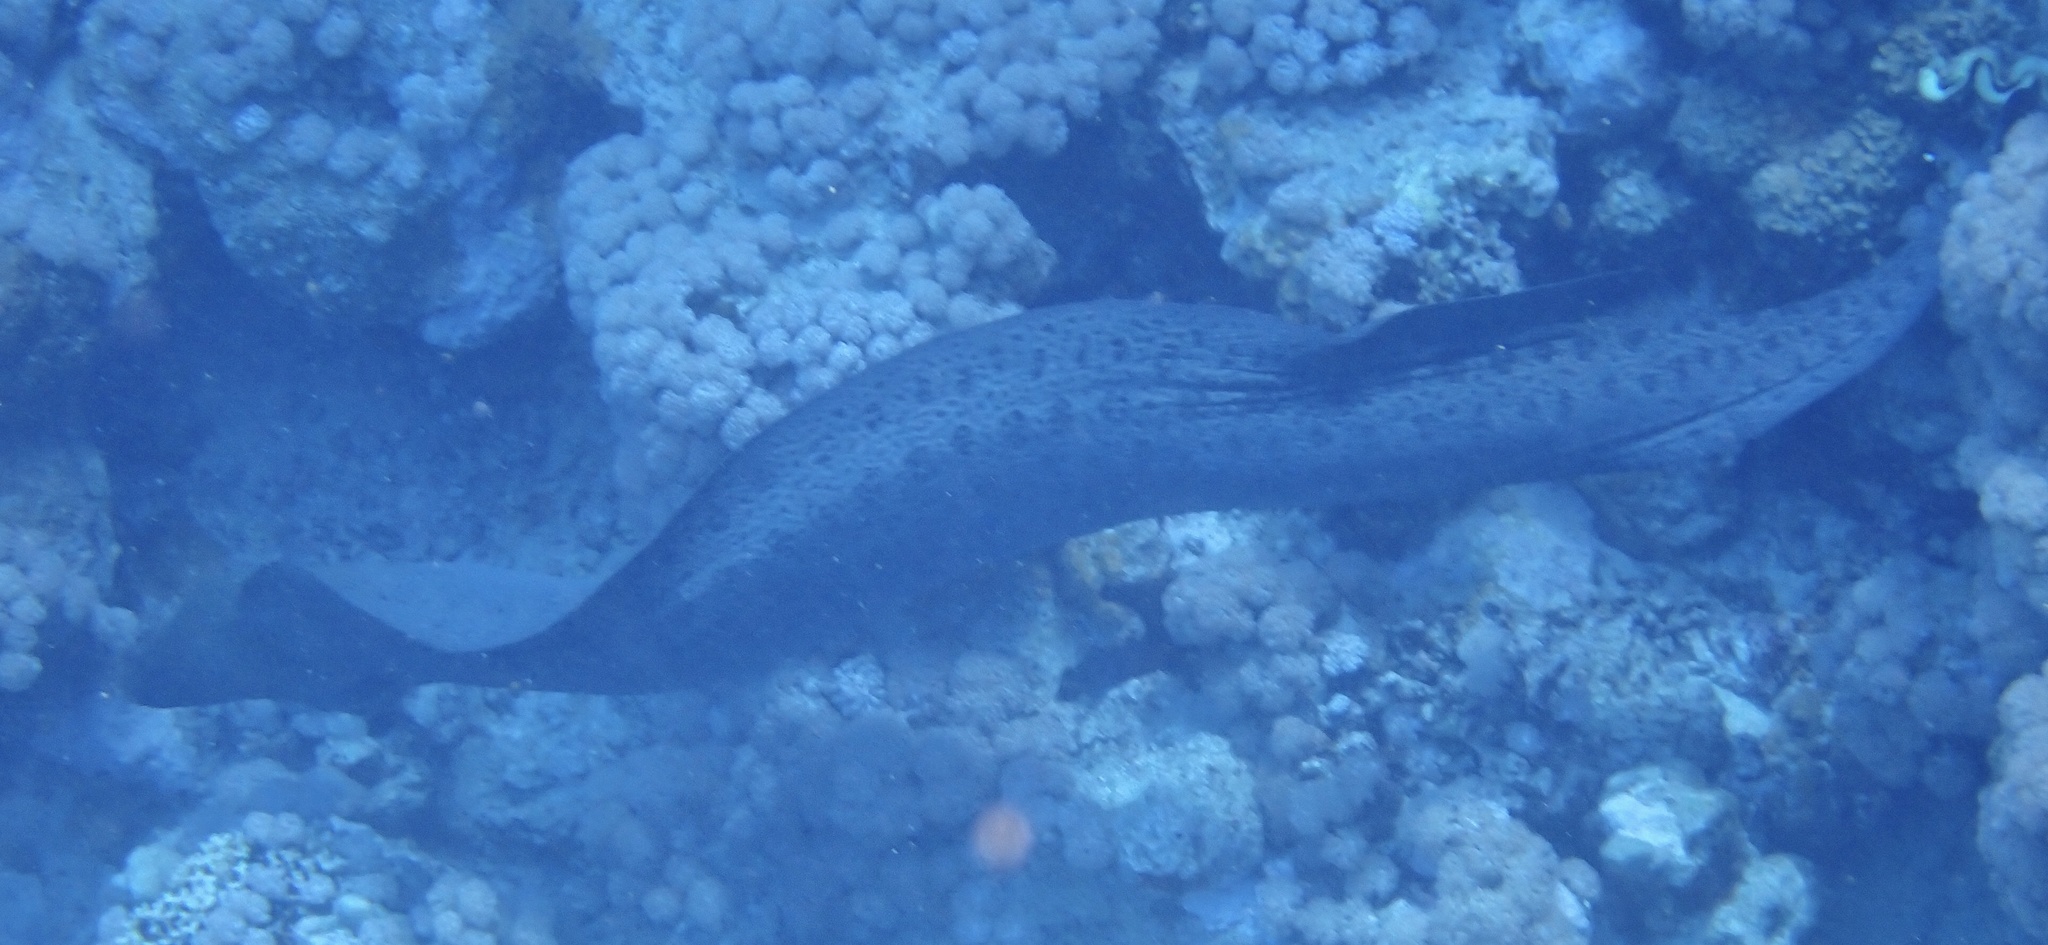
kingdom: Animalia
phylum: Chordata
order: Anguilliformes
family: Muraenidae
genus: Gymnothorax
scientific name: Gymnothorax javanicus
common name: Giant moray
